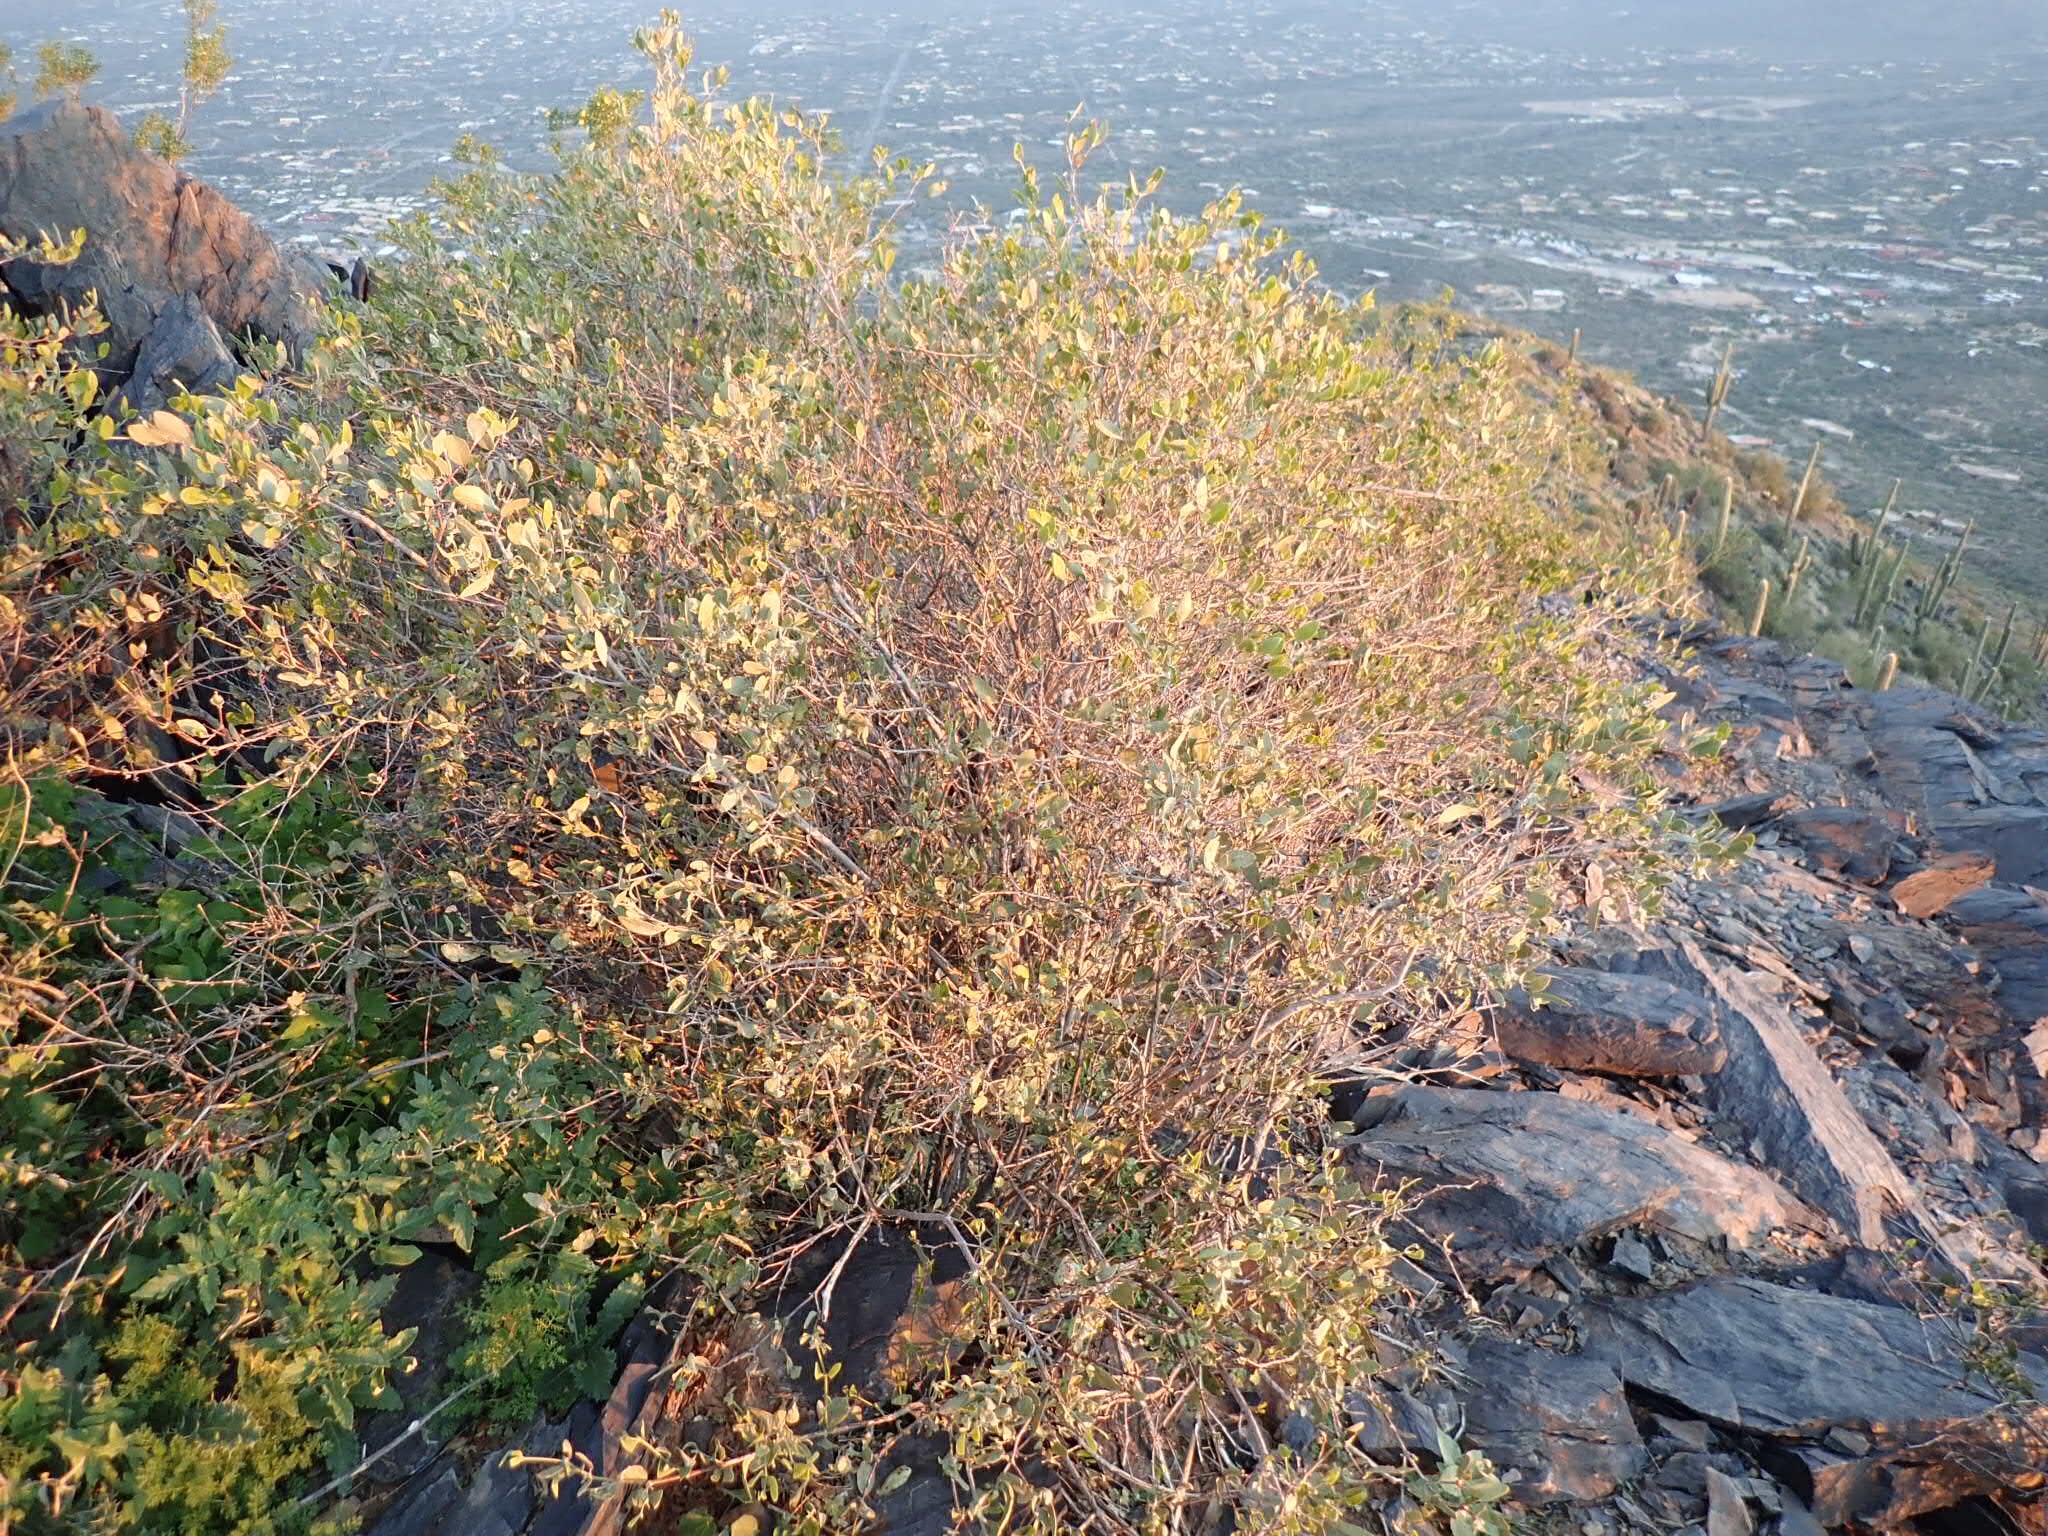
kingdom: Plantae
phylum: Tracheophyta
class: Magnoliopsida
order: Caryophyllales
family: Simmondsiaceae
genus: Simmondsia
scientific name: Simmondsia chinensis
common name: Jojoba
